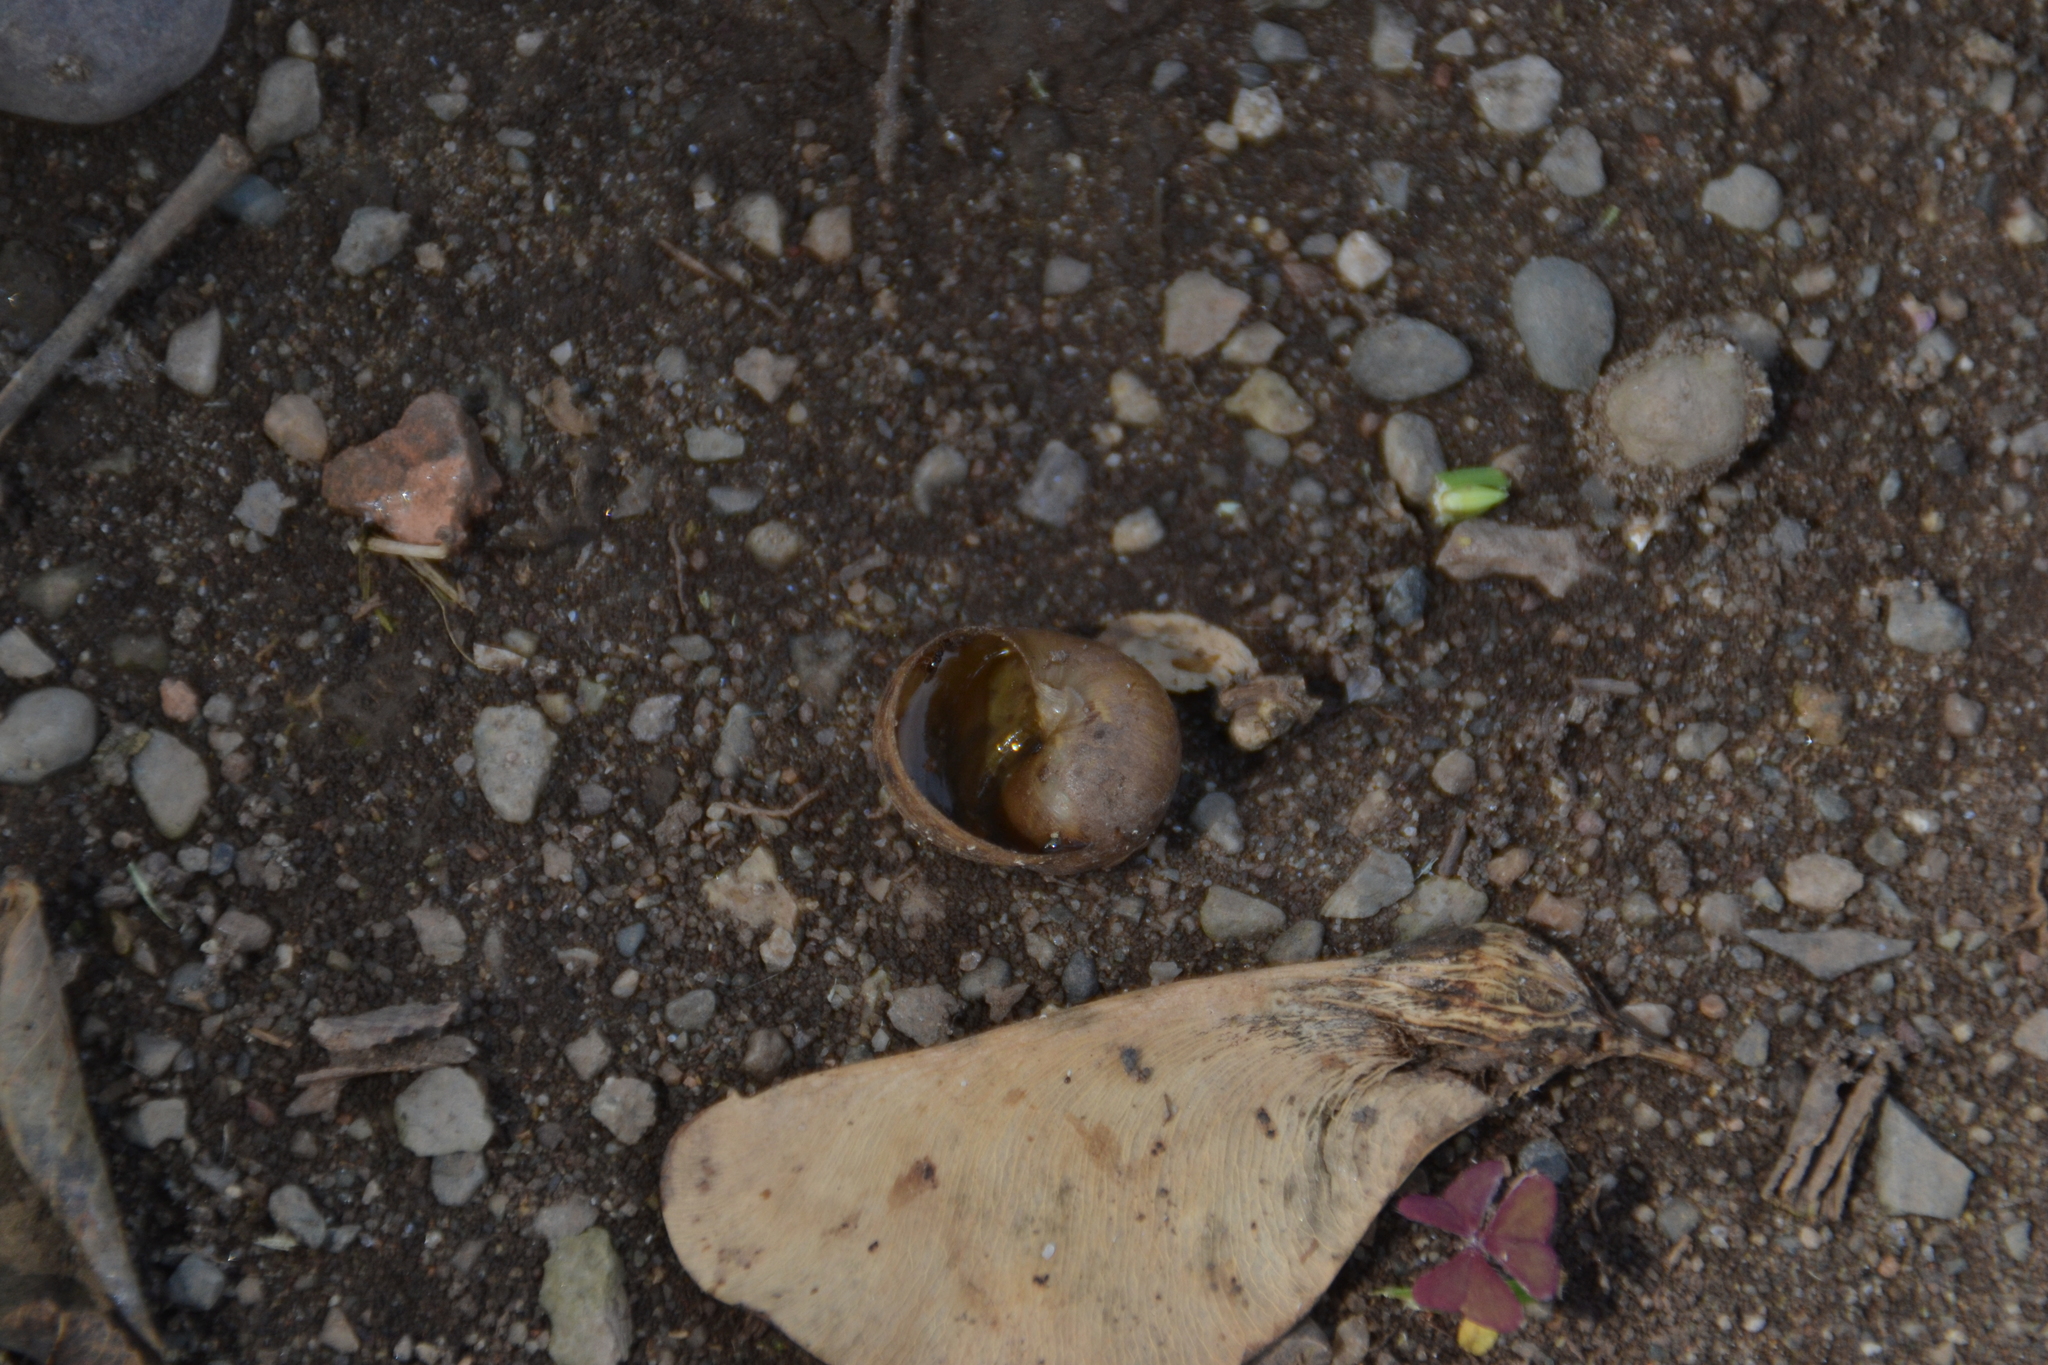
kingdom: Animalia
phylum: Mollusca
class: Gastropoda
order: Stylommatophora
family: Helicidae
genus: Cornu
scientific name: Cornu aspersum
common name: Brown garden snail
